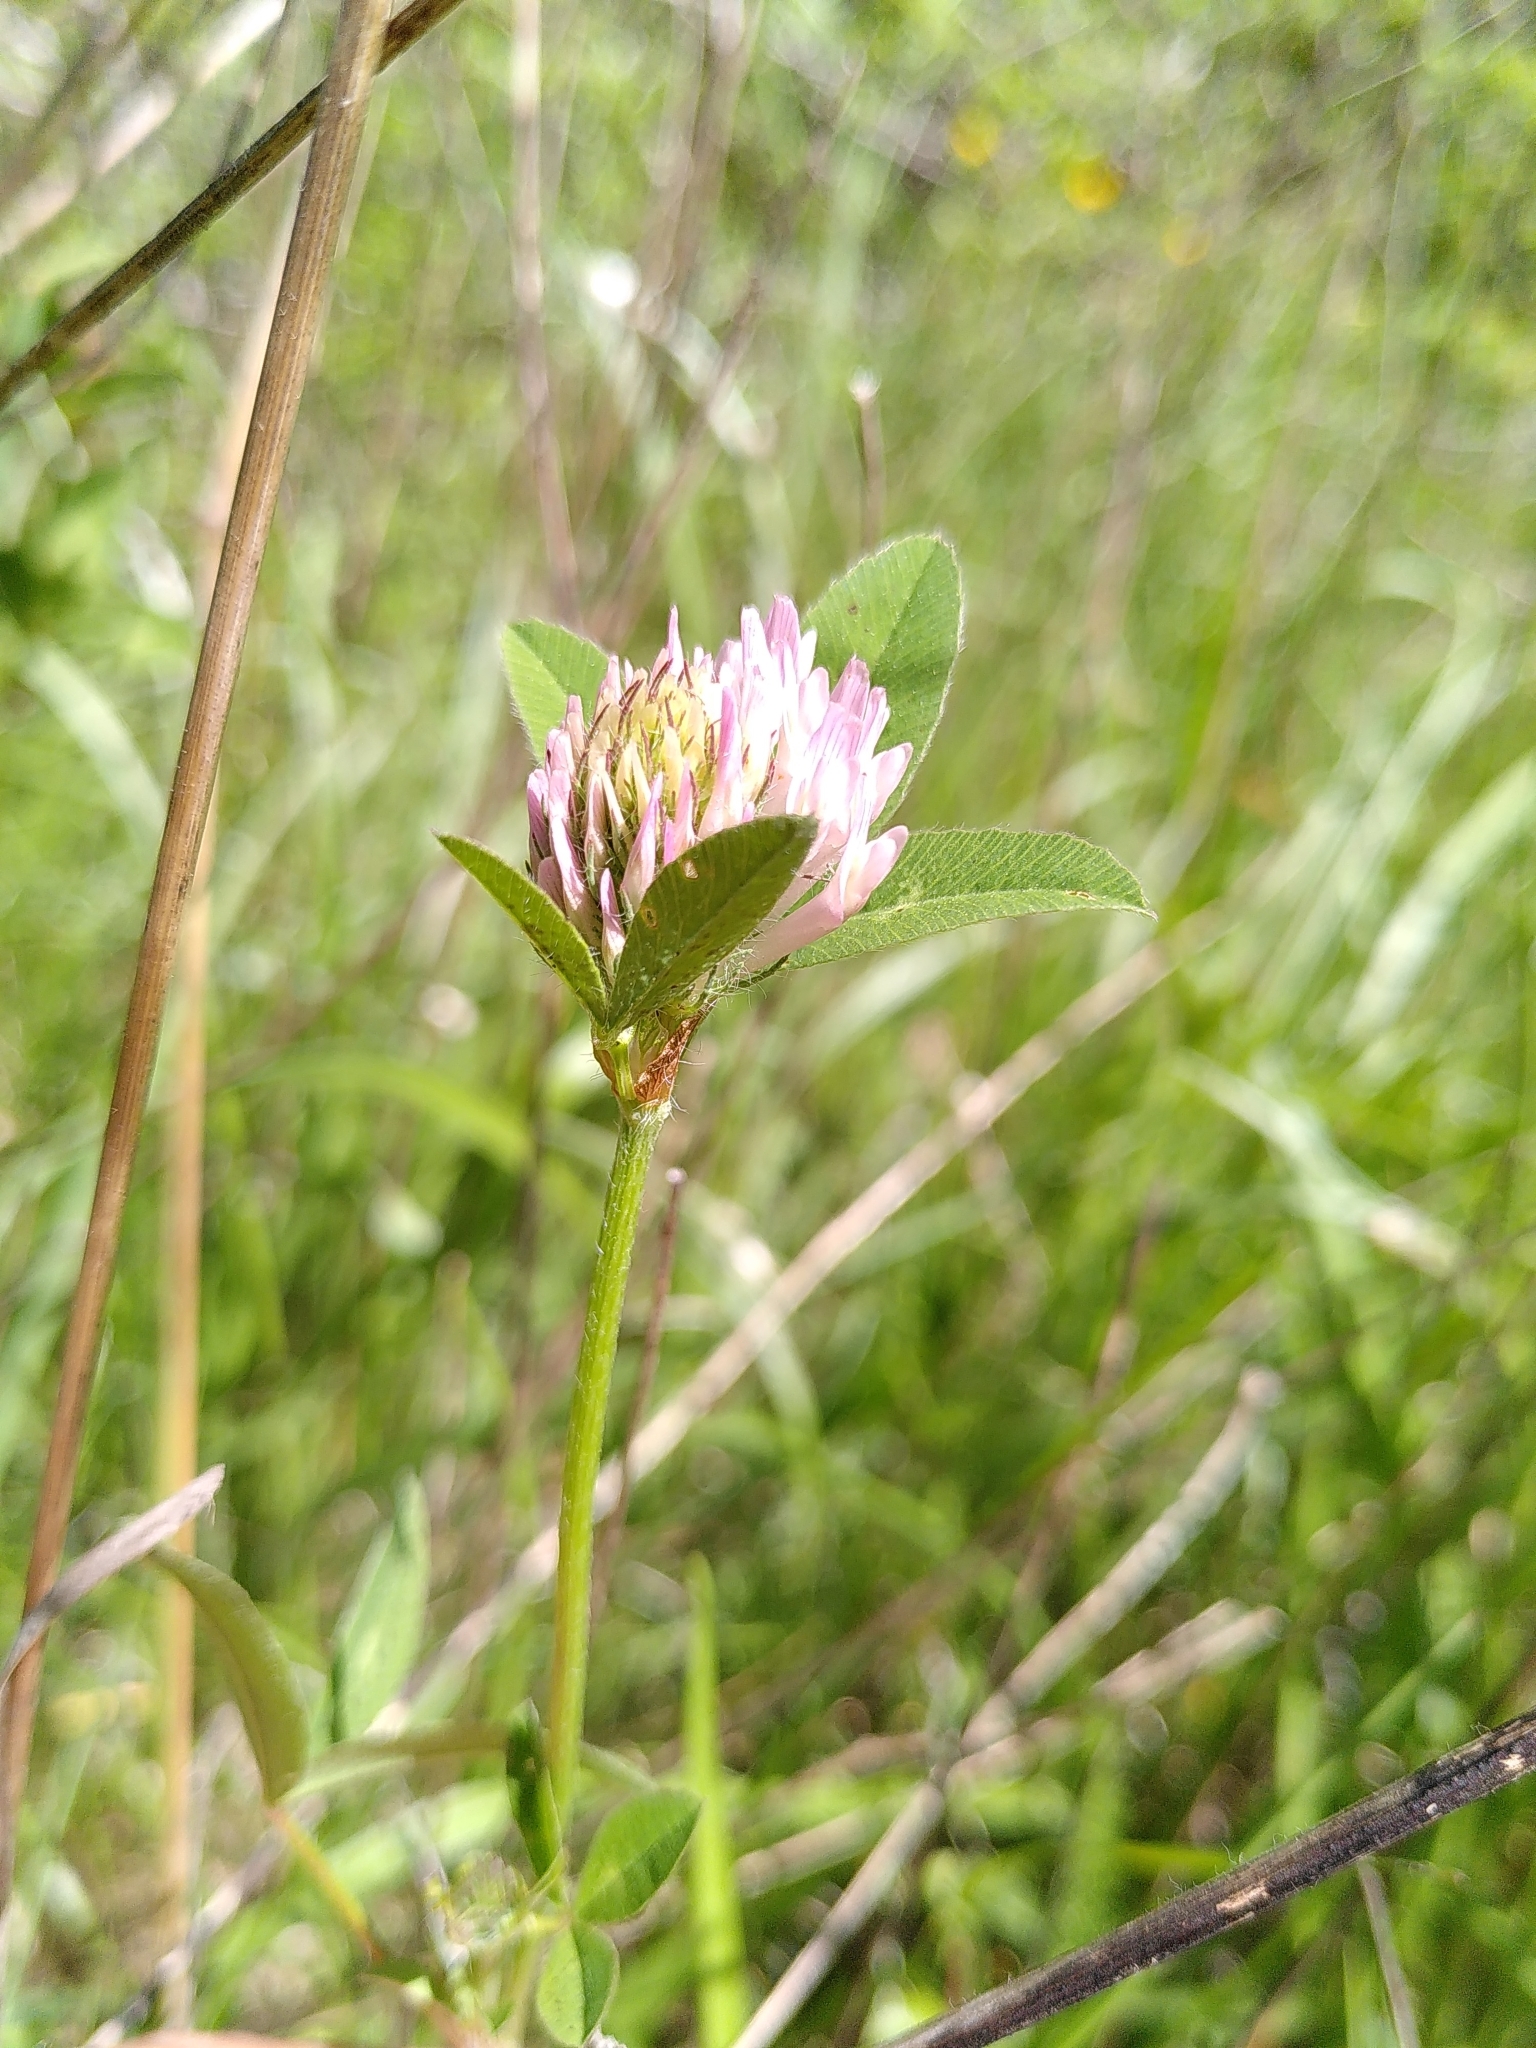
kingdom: Plantae
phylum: Tracheophyta
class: Magnoliopsida
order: Fabales
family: Fabaceae
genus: Trifolium
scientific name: Trifolium pratense
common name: Red clover
